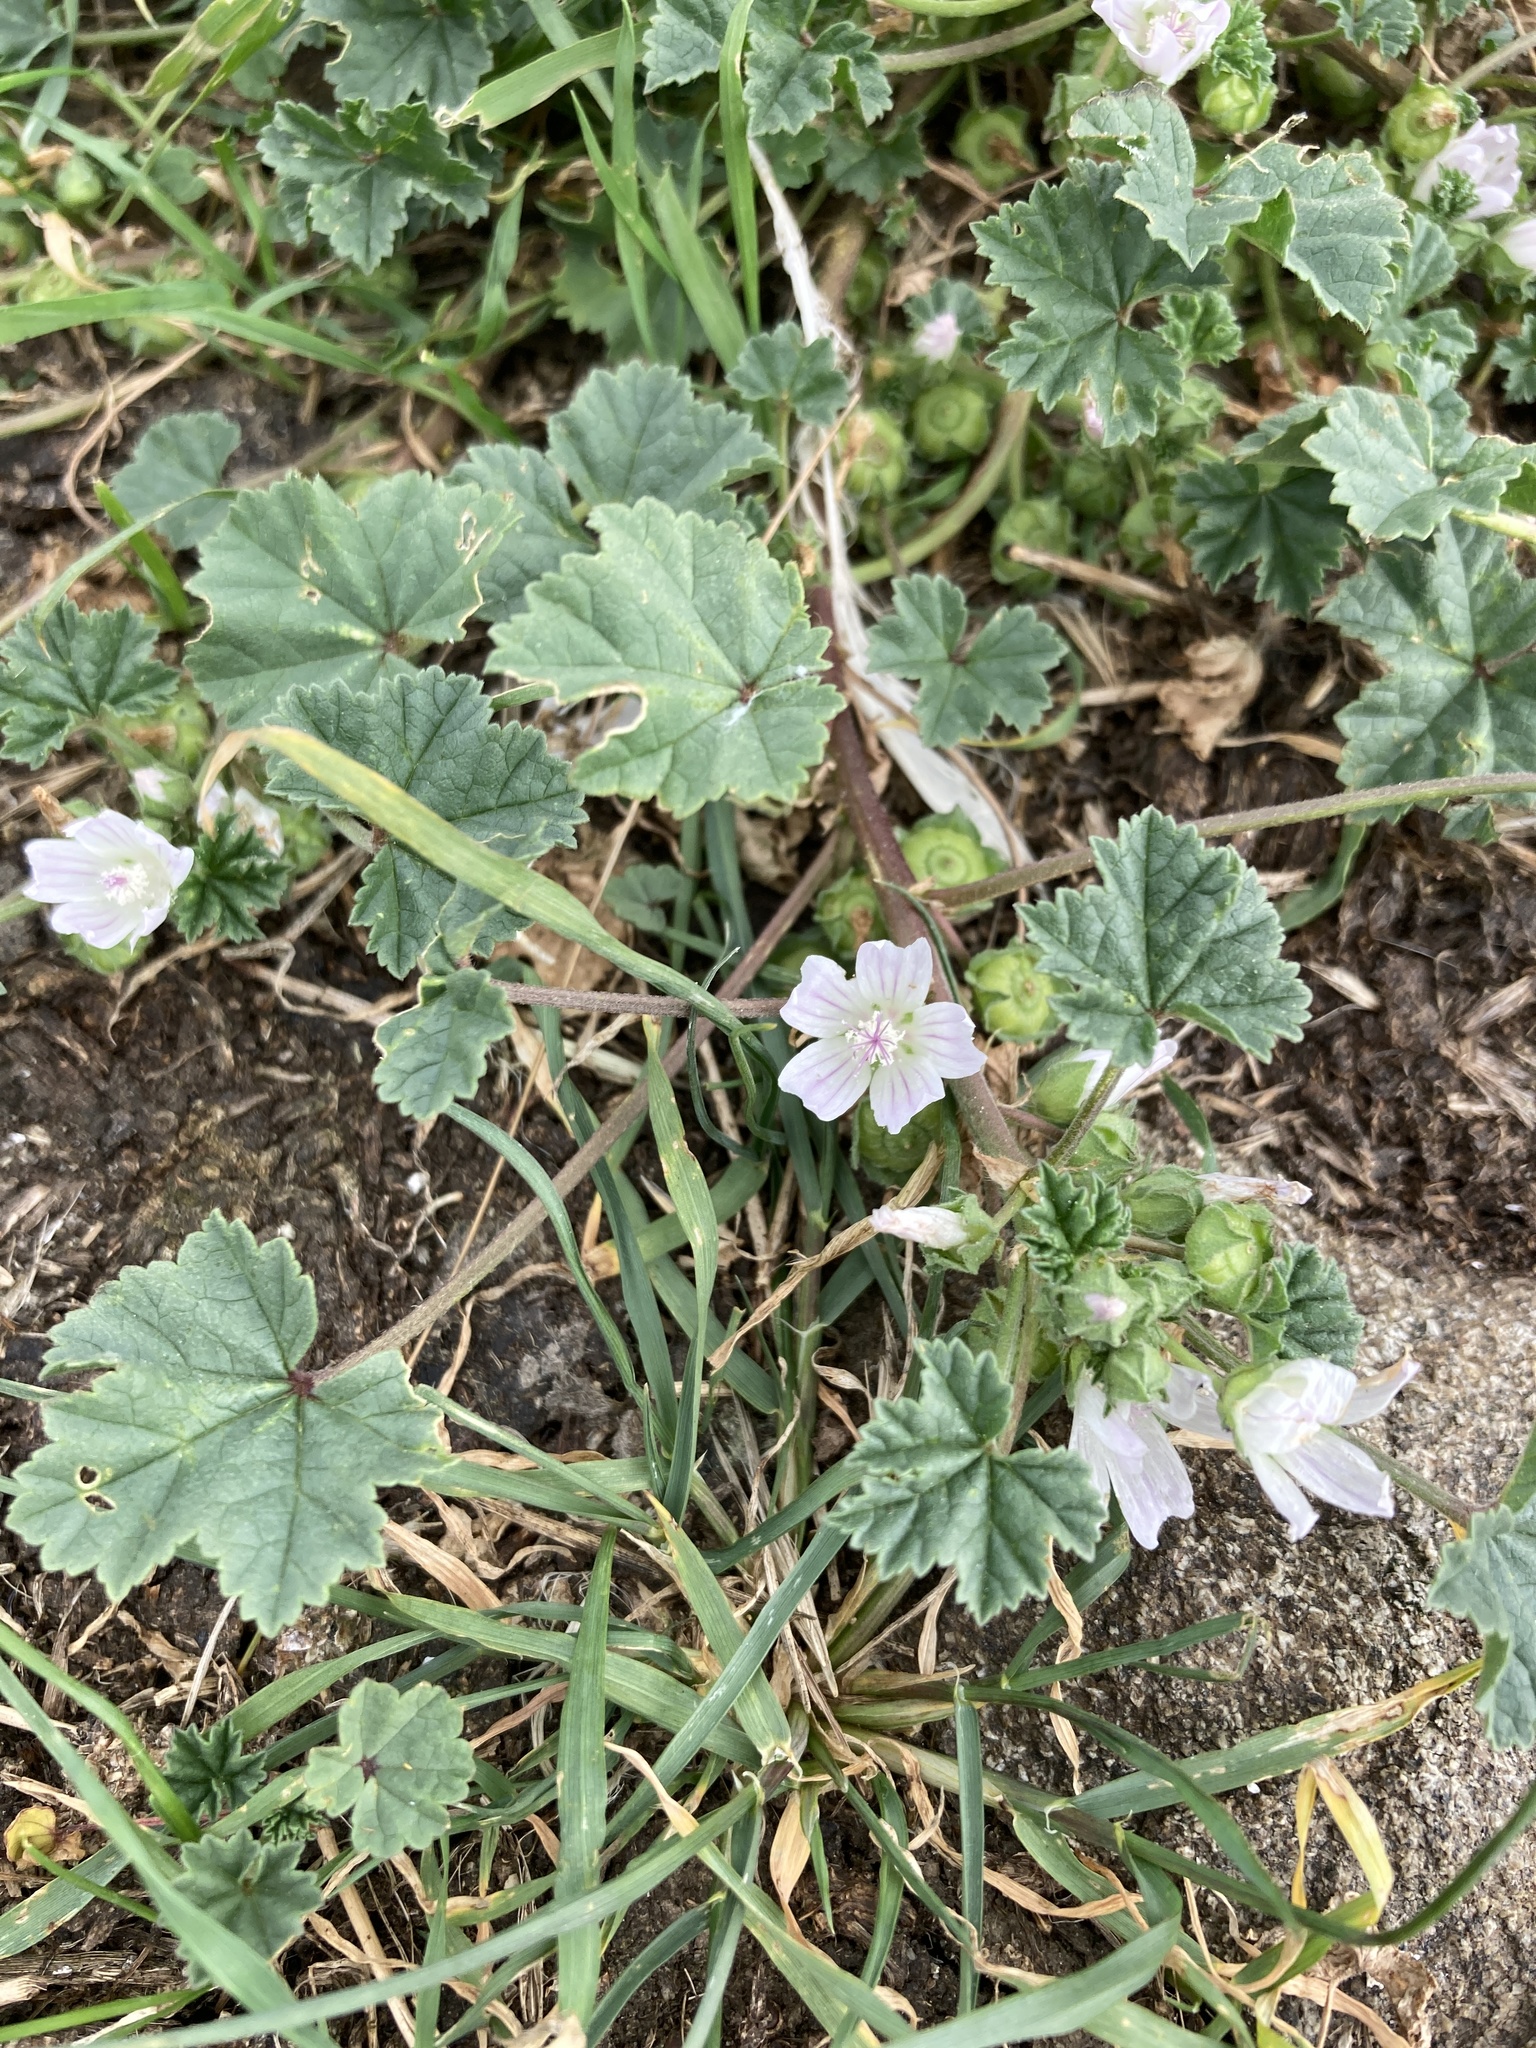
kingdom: Plantae
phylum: Tracheophyta
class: Magnoliopsida
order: Malvales
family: Malvaceae
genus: Malva
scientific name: Malva neglecta
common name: Common mallow
